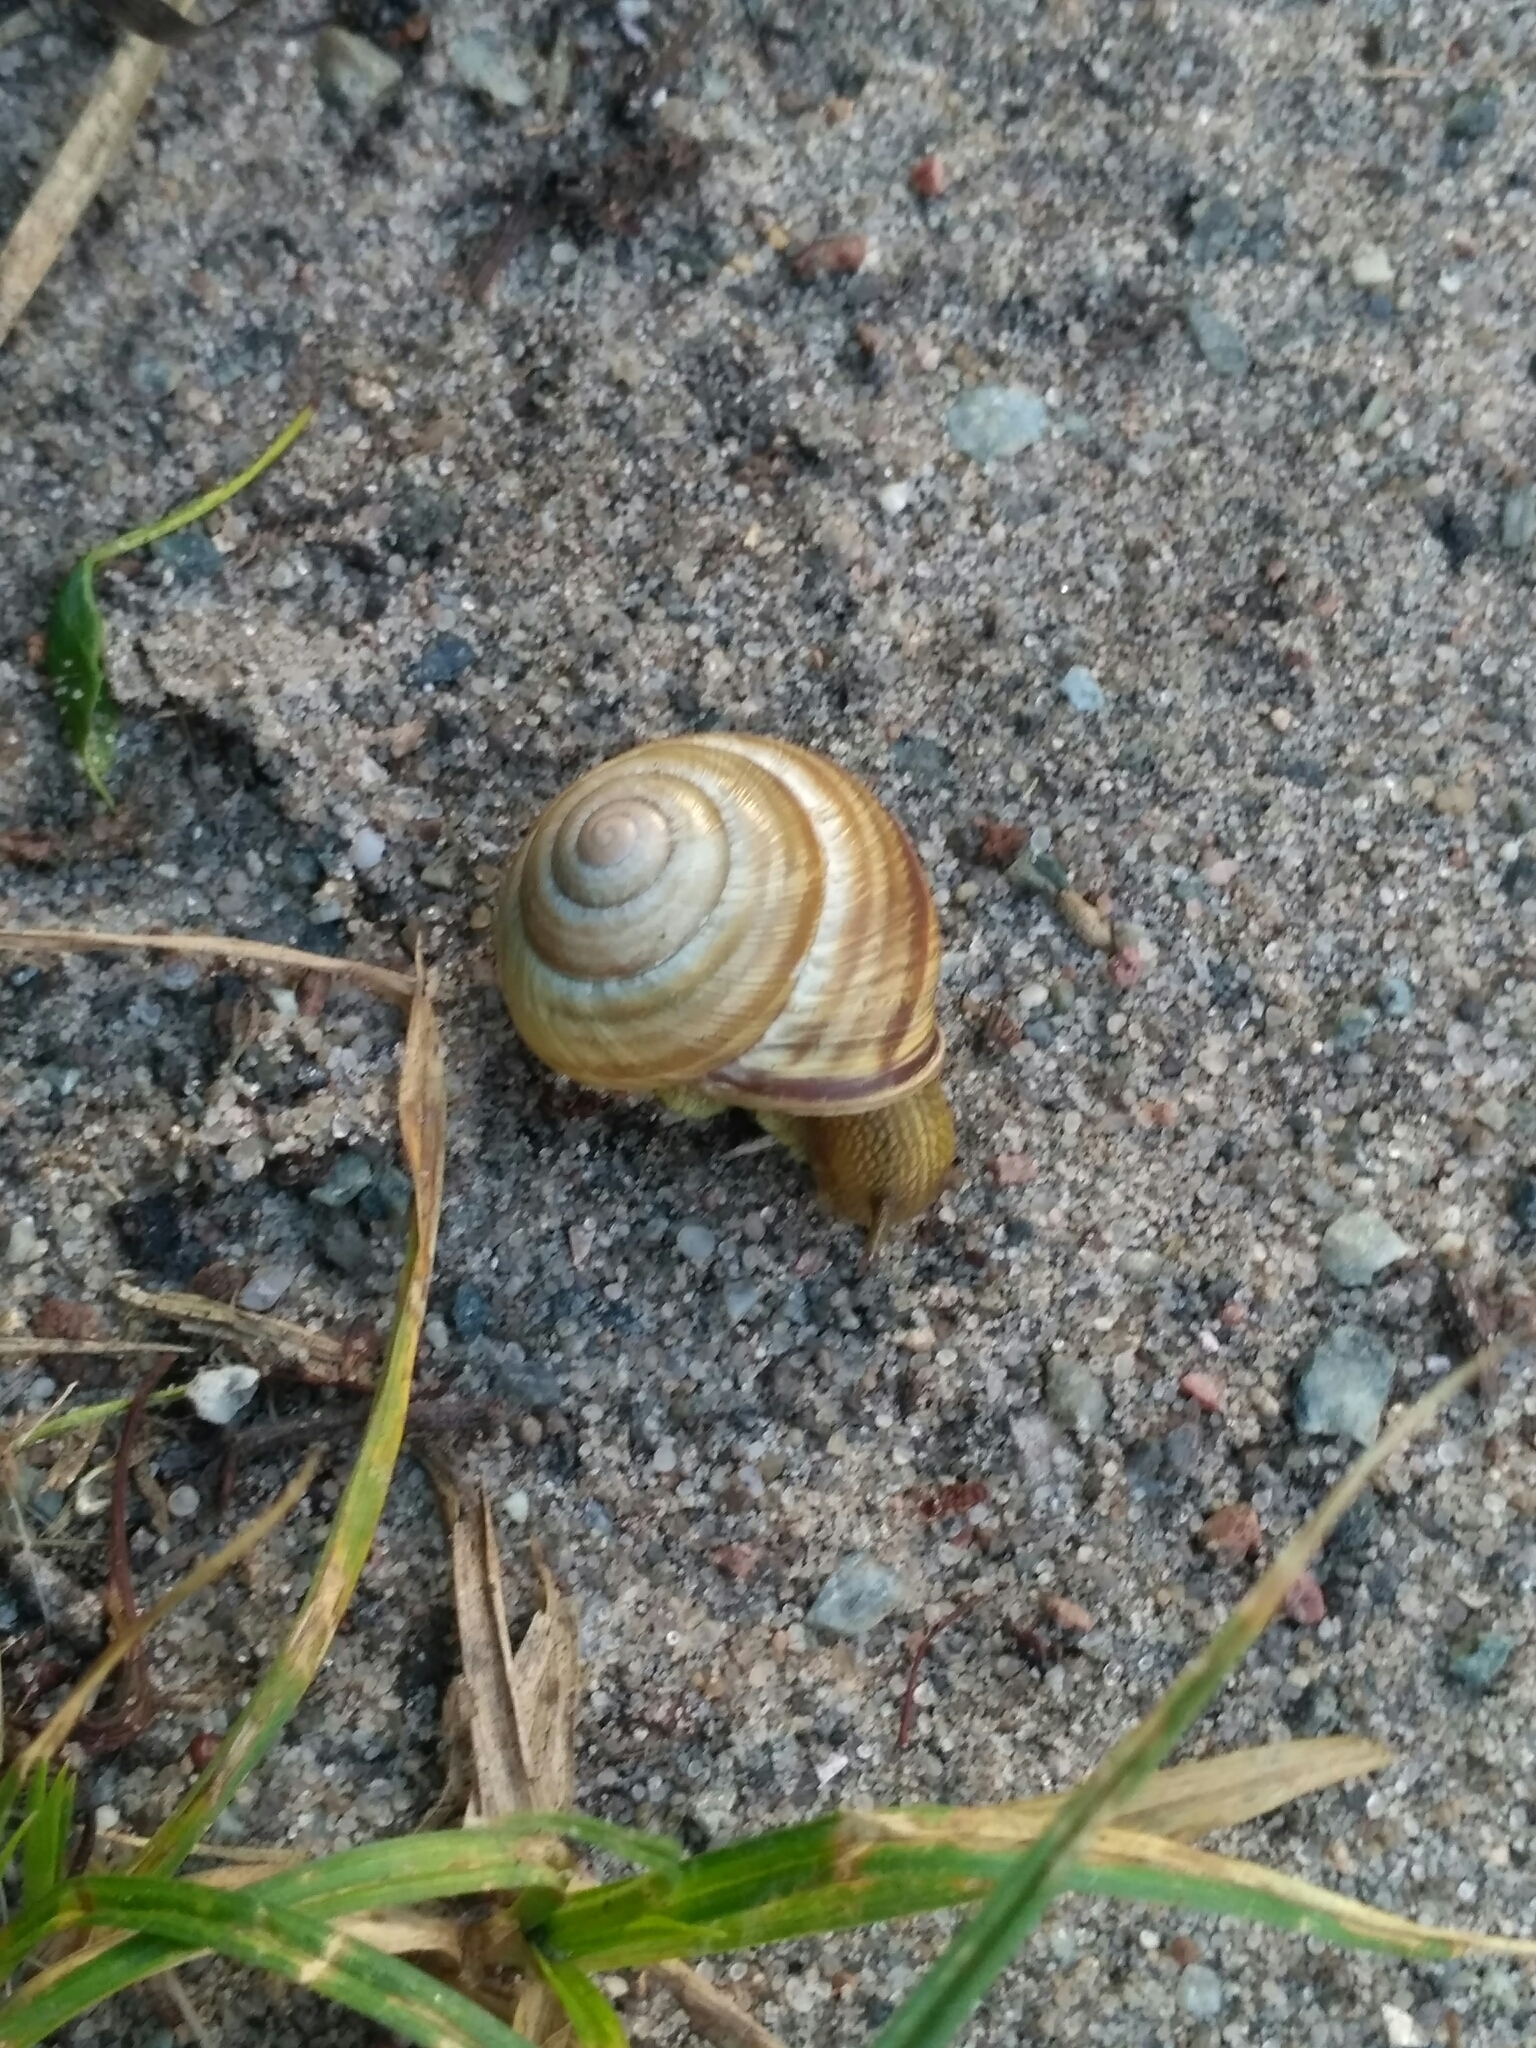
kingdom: Animalia
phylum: Mollusca
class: Gastropoda
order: Stylommatophora
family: Helicidae
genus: Caucasotachea
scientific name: Caucasotachea vindobonensis
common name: European helicid land snail
